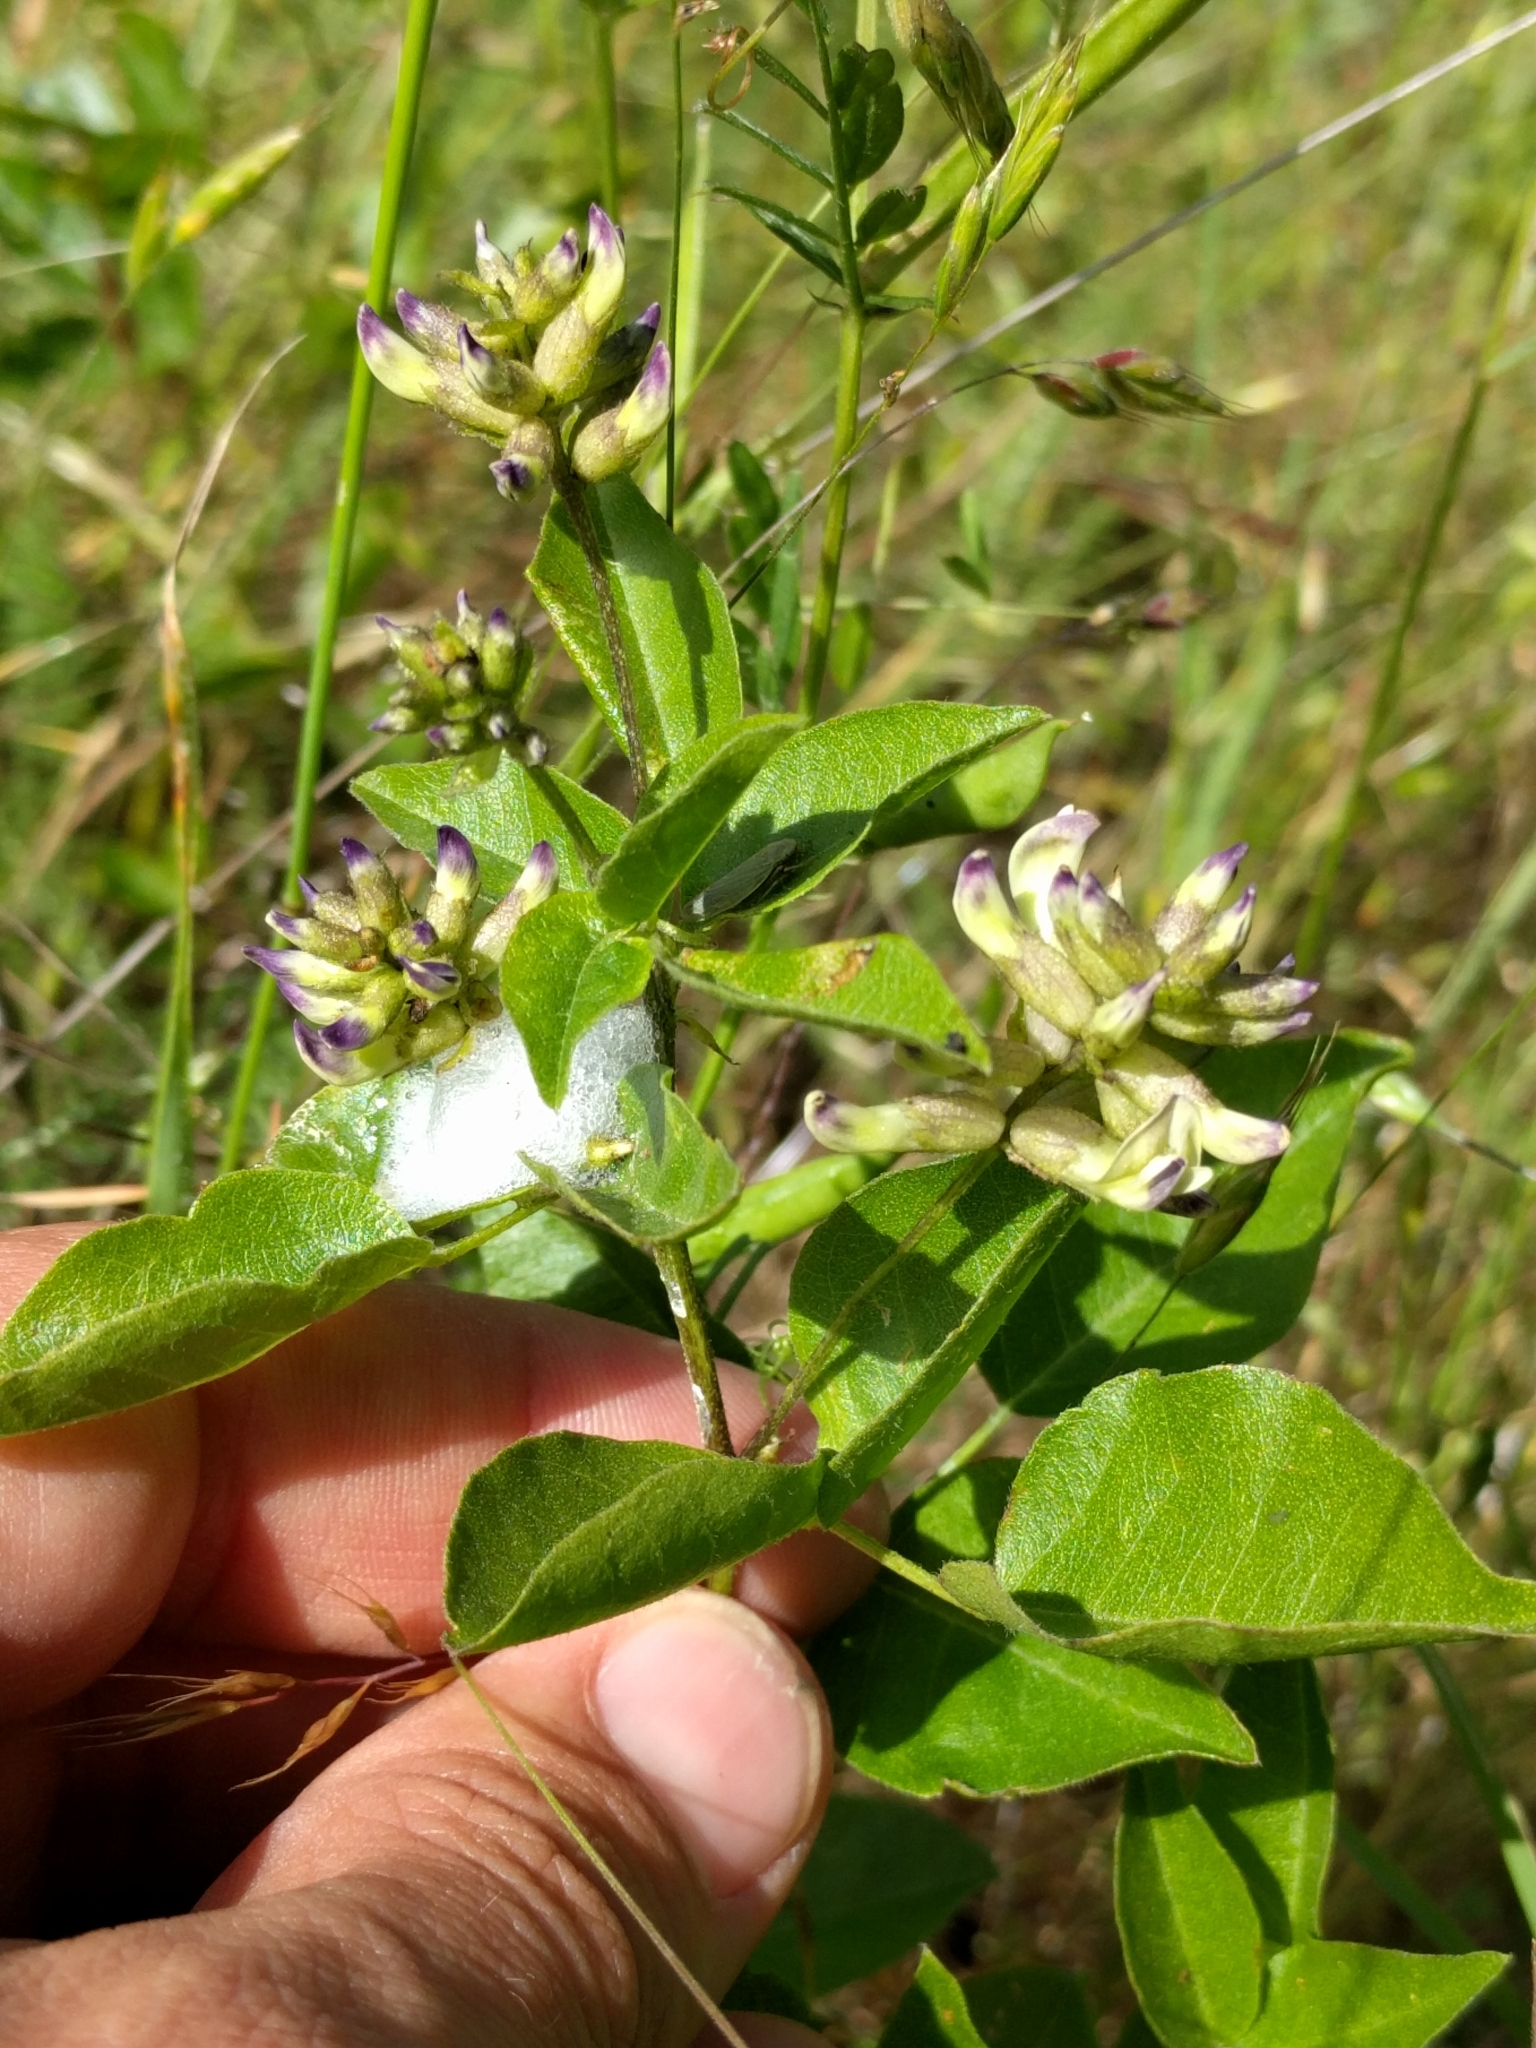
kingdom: Plantae
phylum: Tracheophyta
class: Magnoliopsida
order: Fabales
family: Fabaceae
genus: Rupertia
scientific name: Rupertia physodes
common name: California-tea
